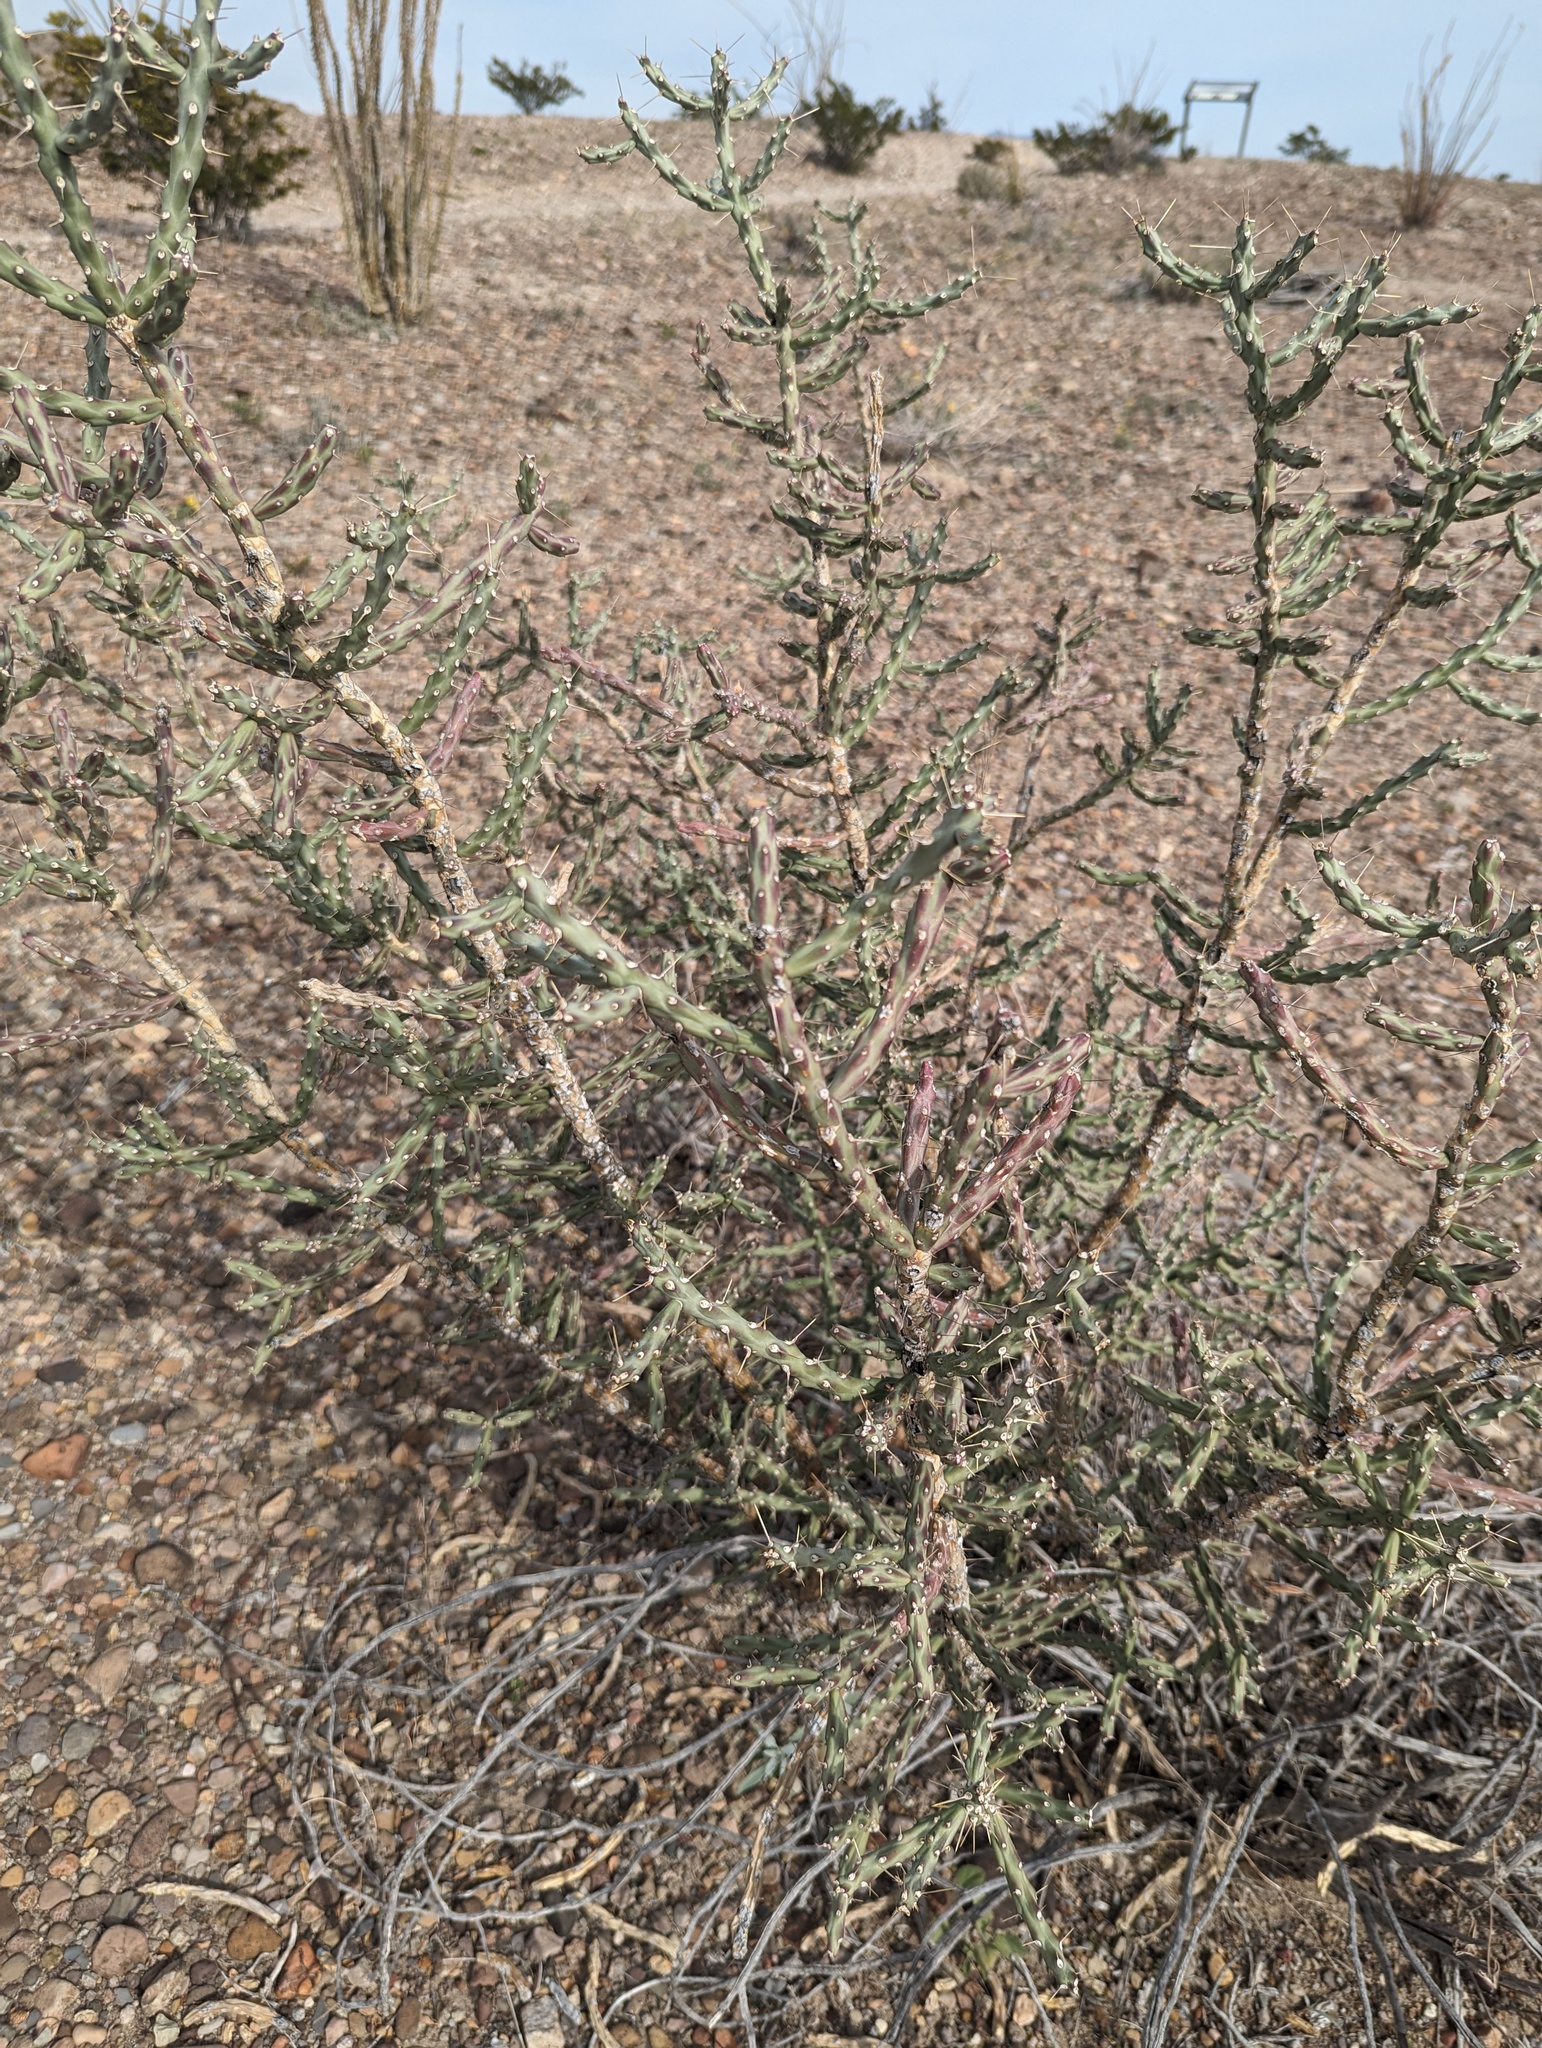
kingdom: Plantae
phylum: Tracheophyta
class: Magnoliopsida
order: Caryophyllales
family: Cactaceae
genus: Cylindropuntia
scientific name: Cylindropuntia leptocaulis
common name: Christmas cactus
